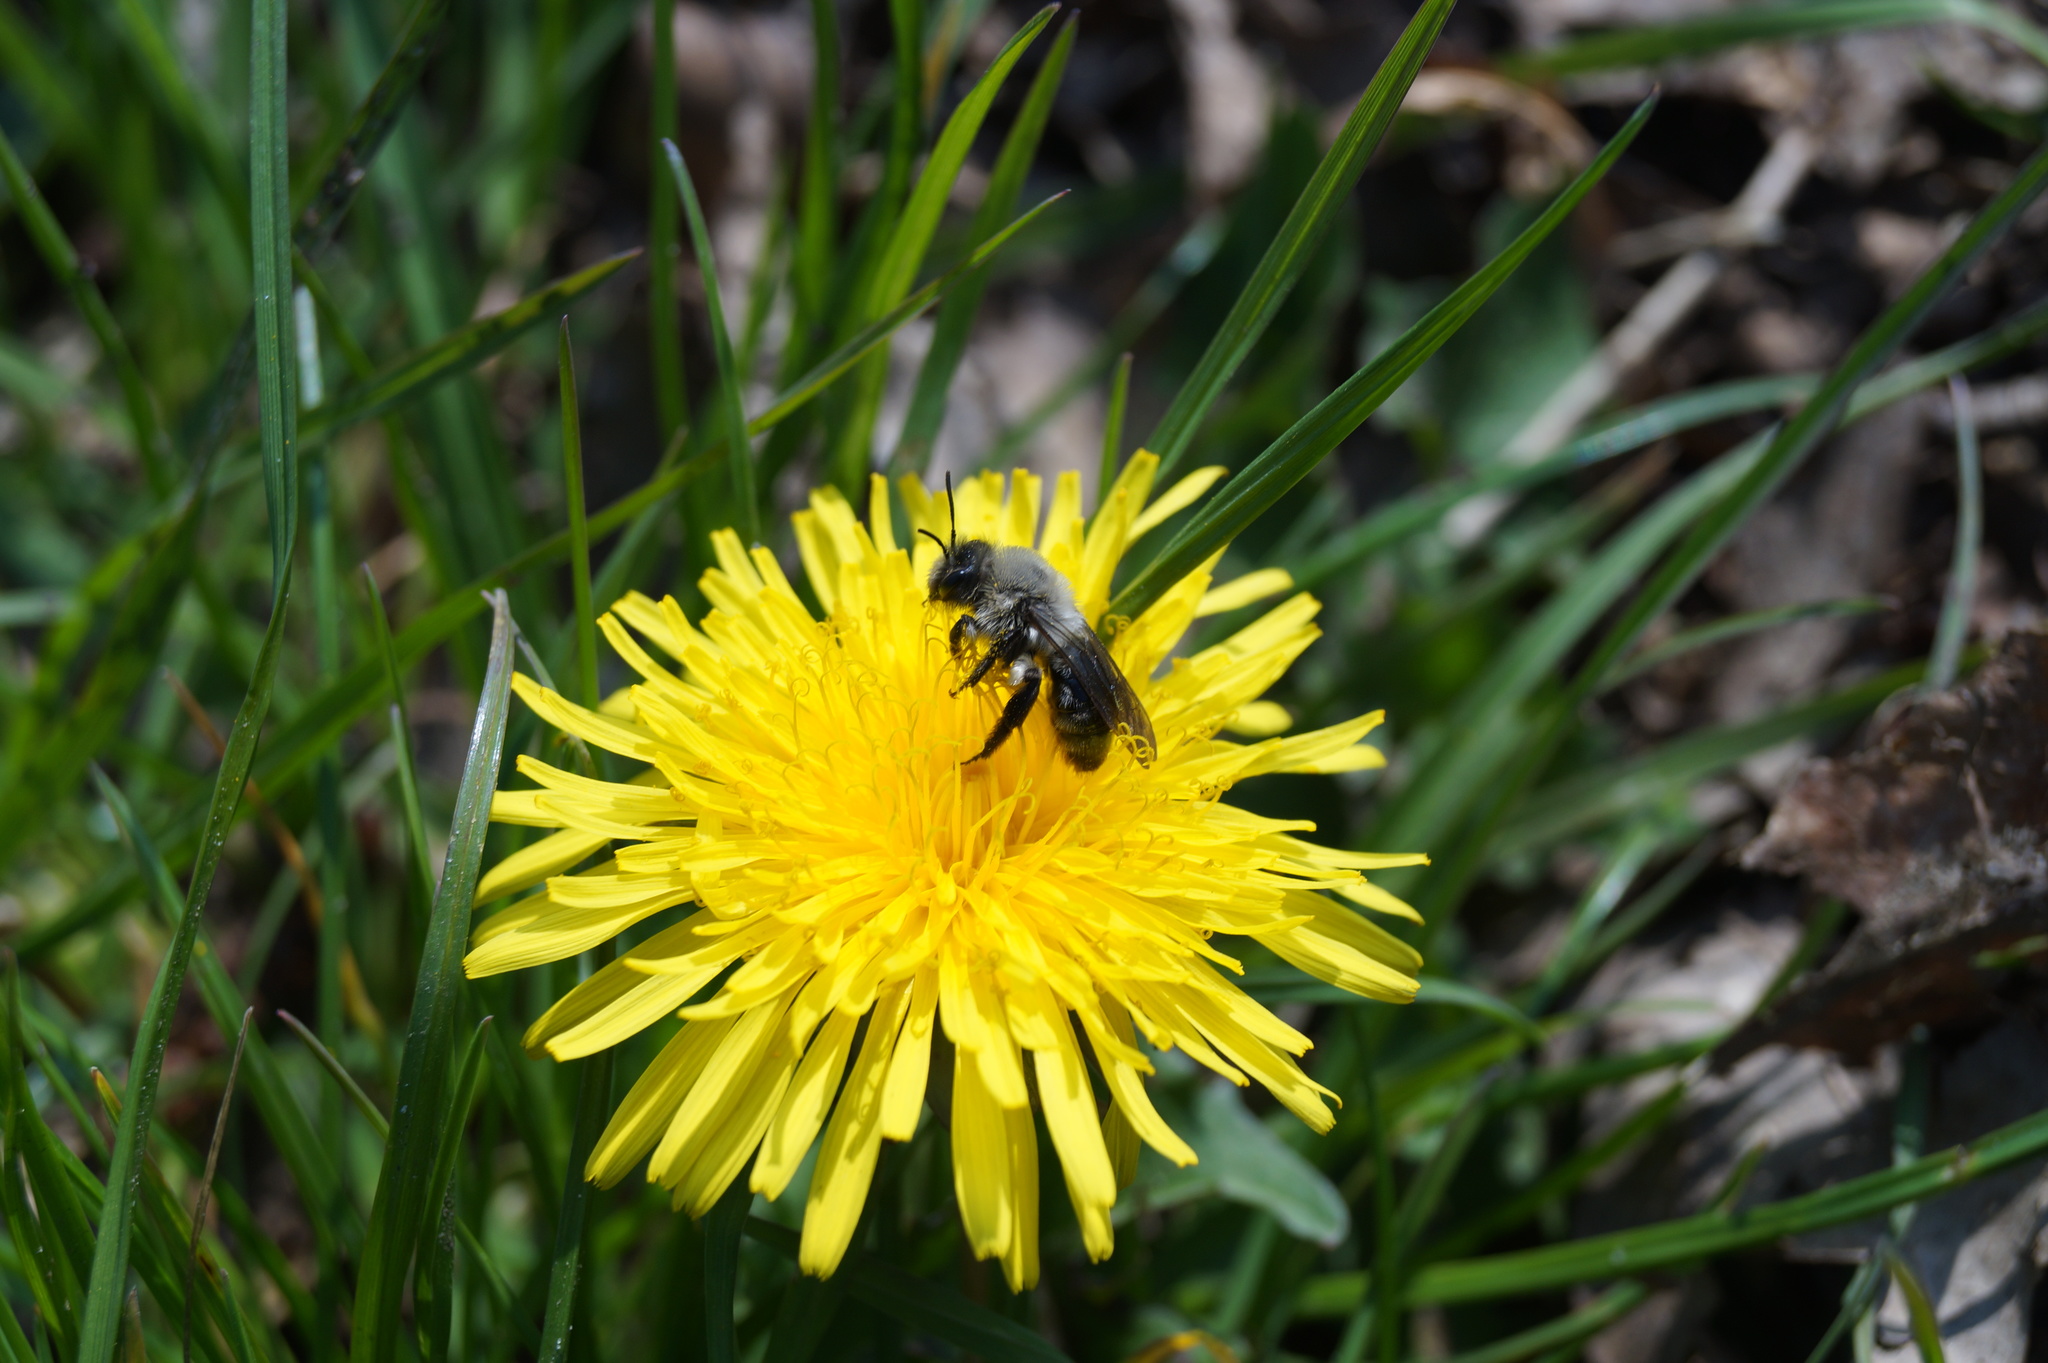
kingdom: Animalia
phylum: Arthropoda
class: Insecta
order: Hymenoptera
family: Andrenidae
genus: Andrena
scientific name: Andrena vaga
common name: Grey-backed mining bee
